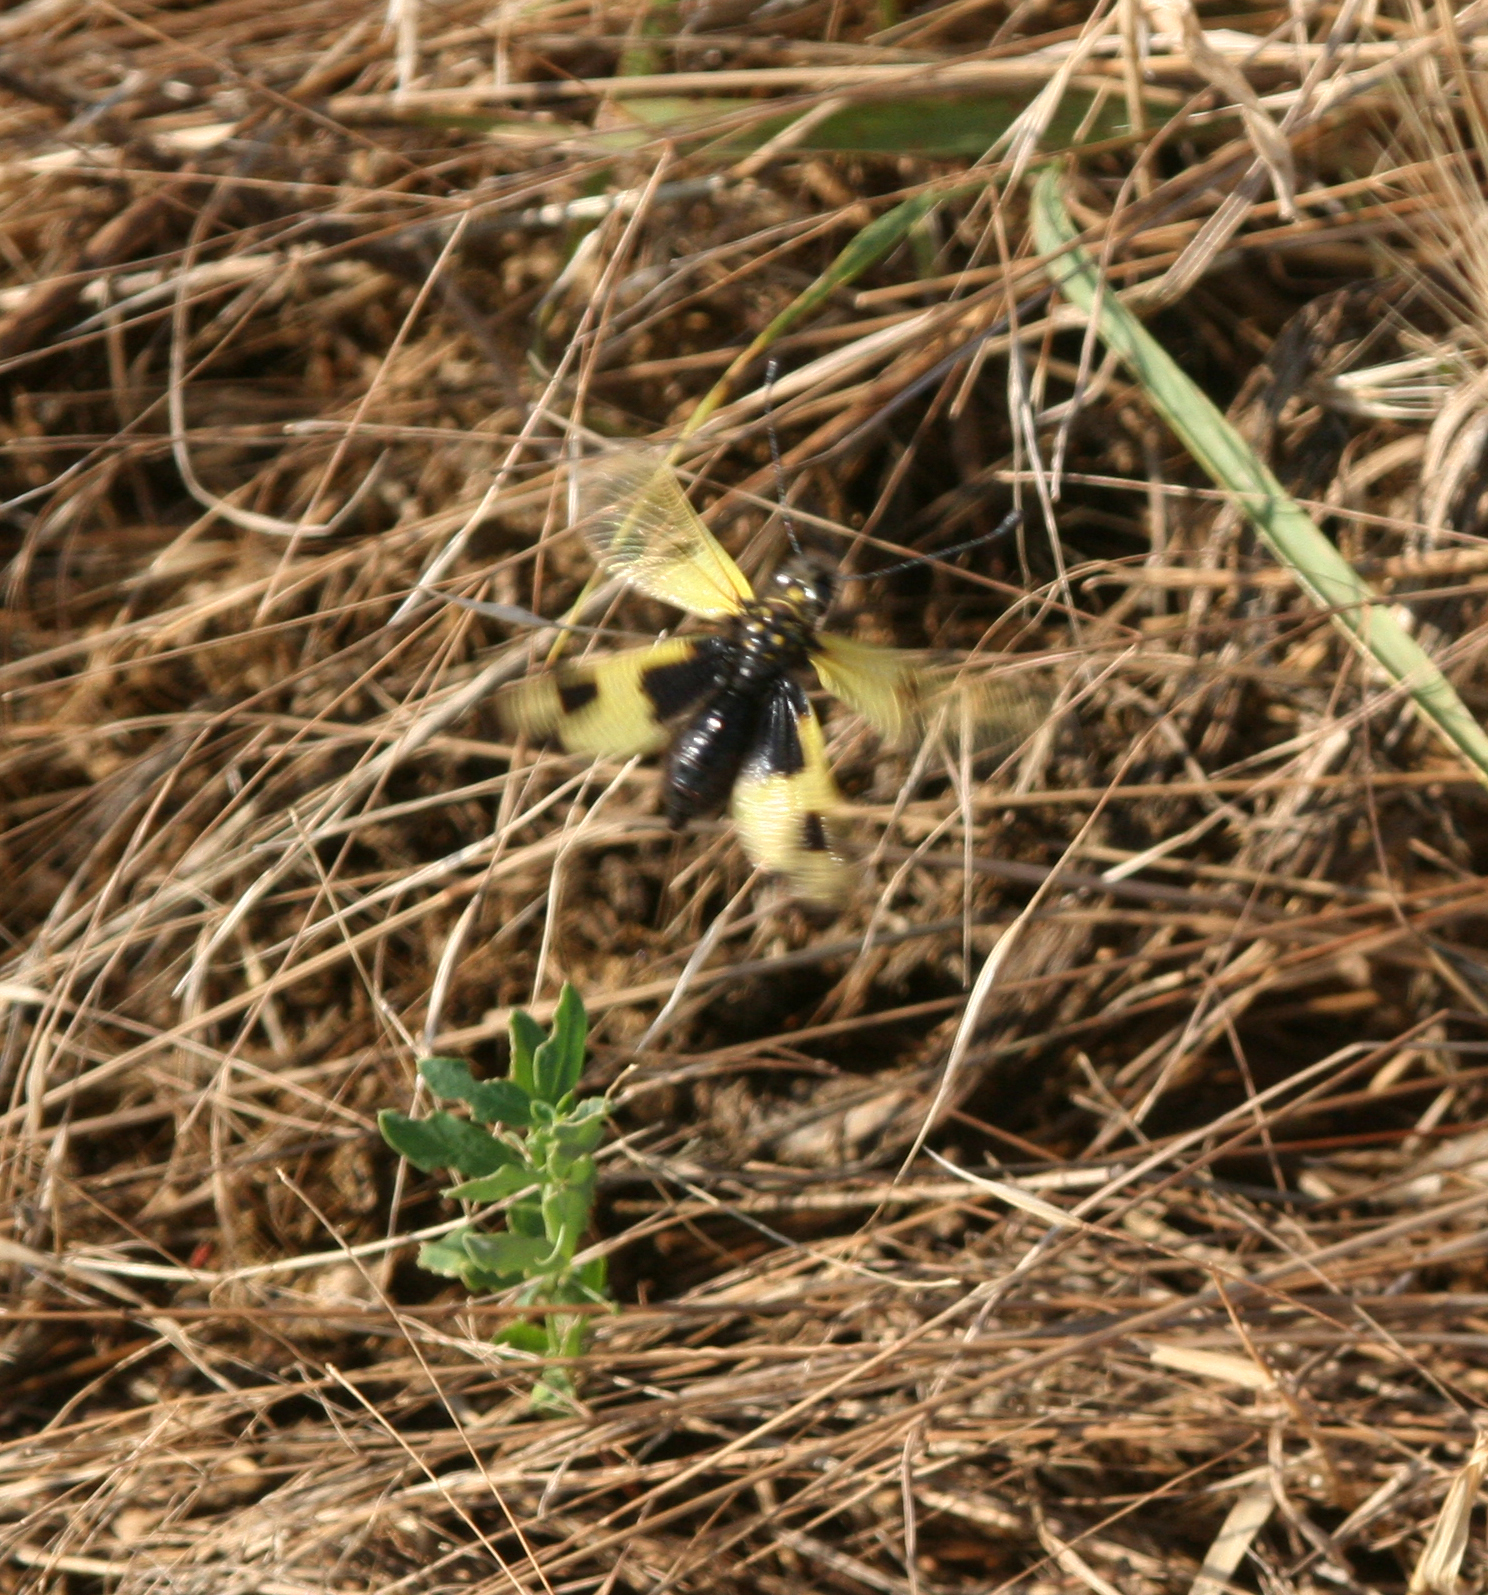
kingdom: Animalia
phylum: Arthropoda
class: Insecta
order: Neuroptera
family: Ascalaphidae
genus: Libelloides
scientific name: Libelloides macaronius
